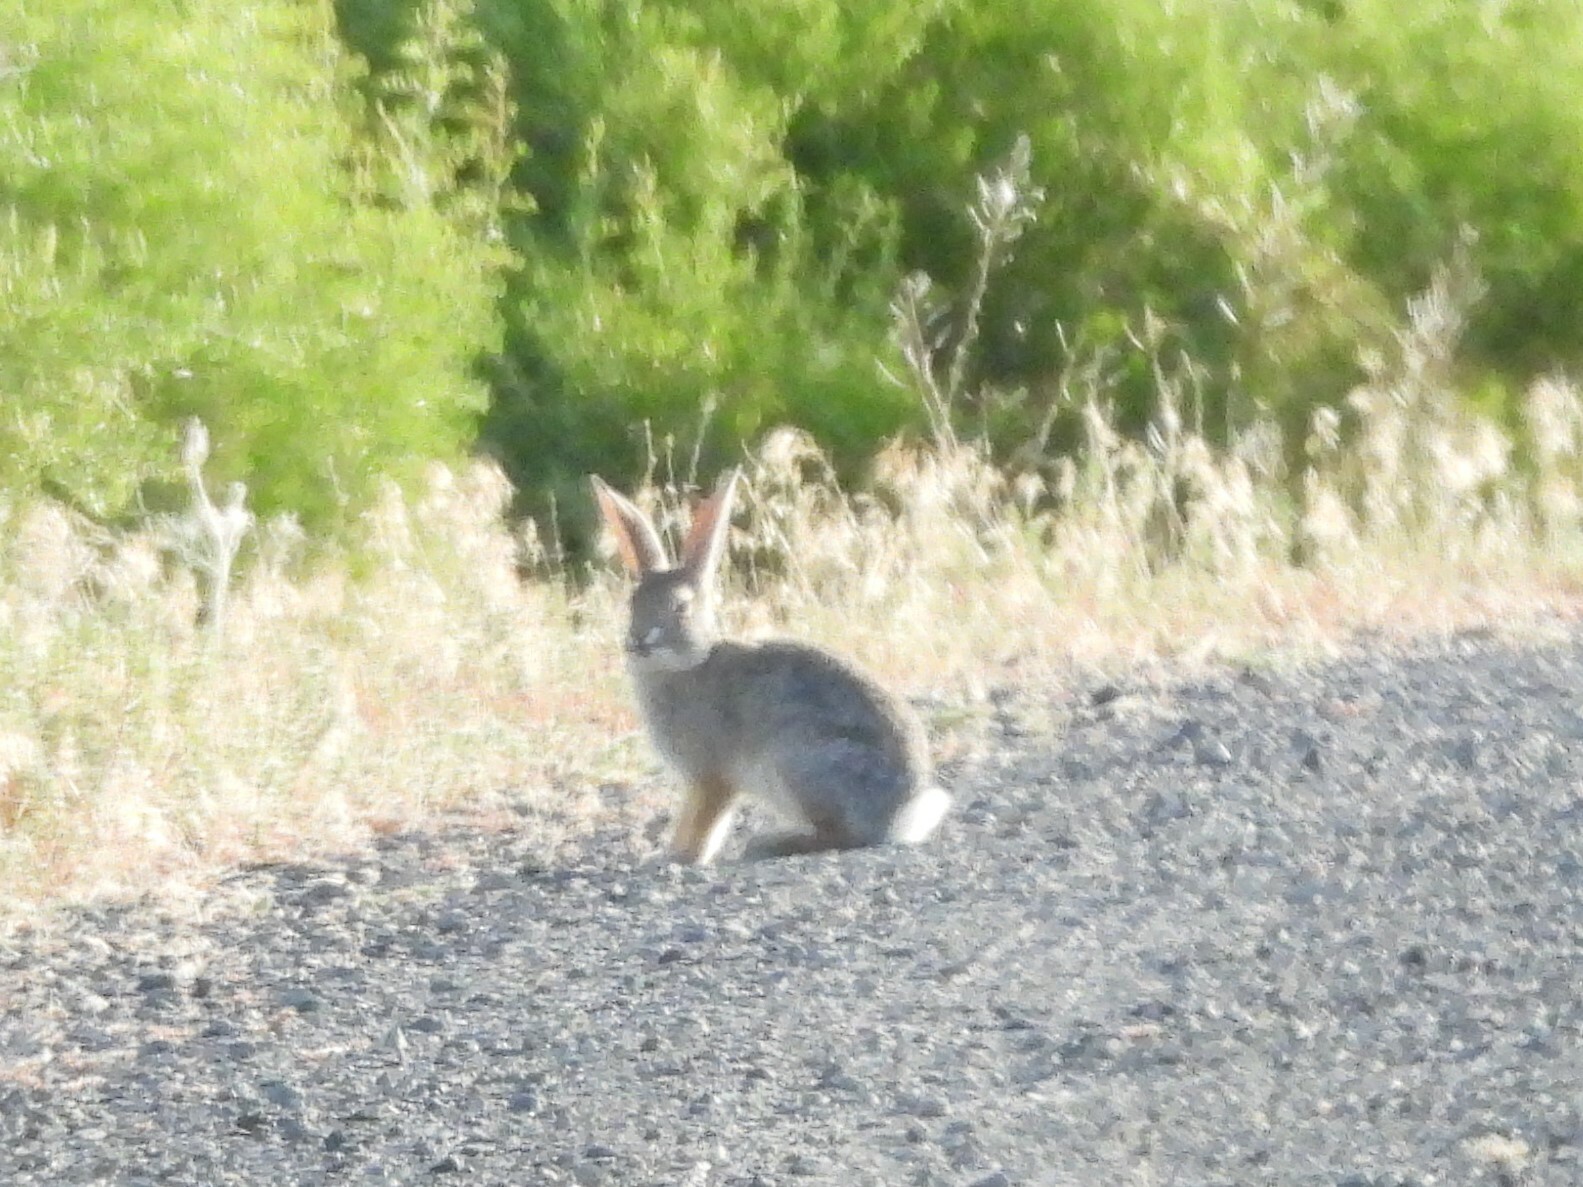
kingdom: Animalia
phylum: Chordata
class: Mammalia
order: Lagomorpha
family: Leporidae
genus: Sylvilagus
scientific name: Sylvilagus audubonii
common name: Desert cottontail
